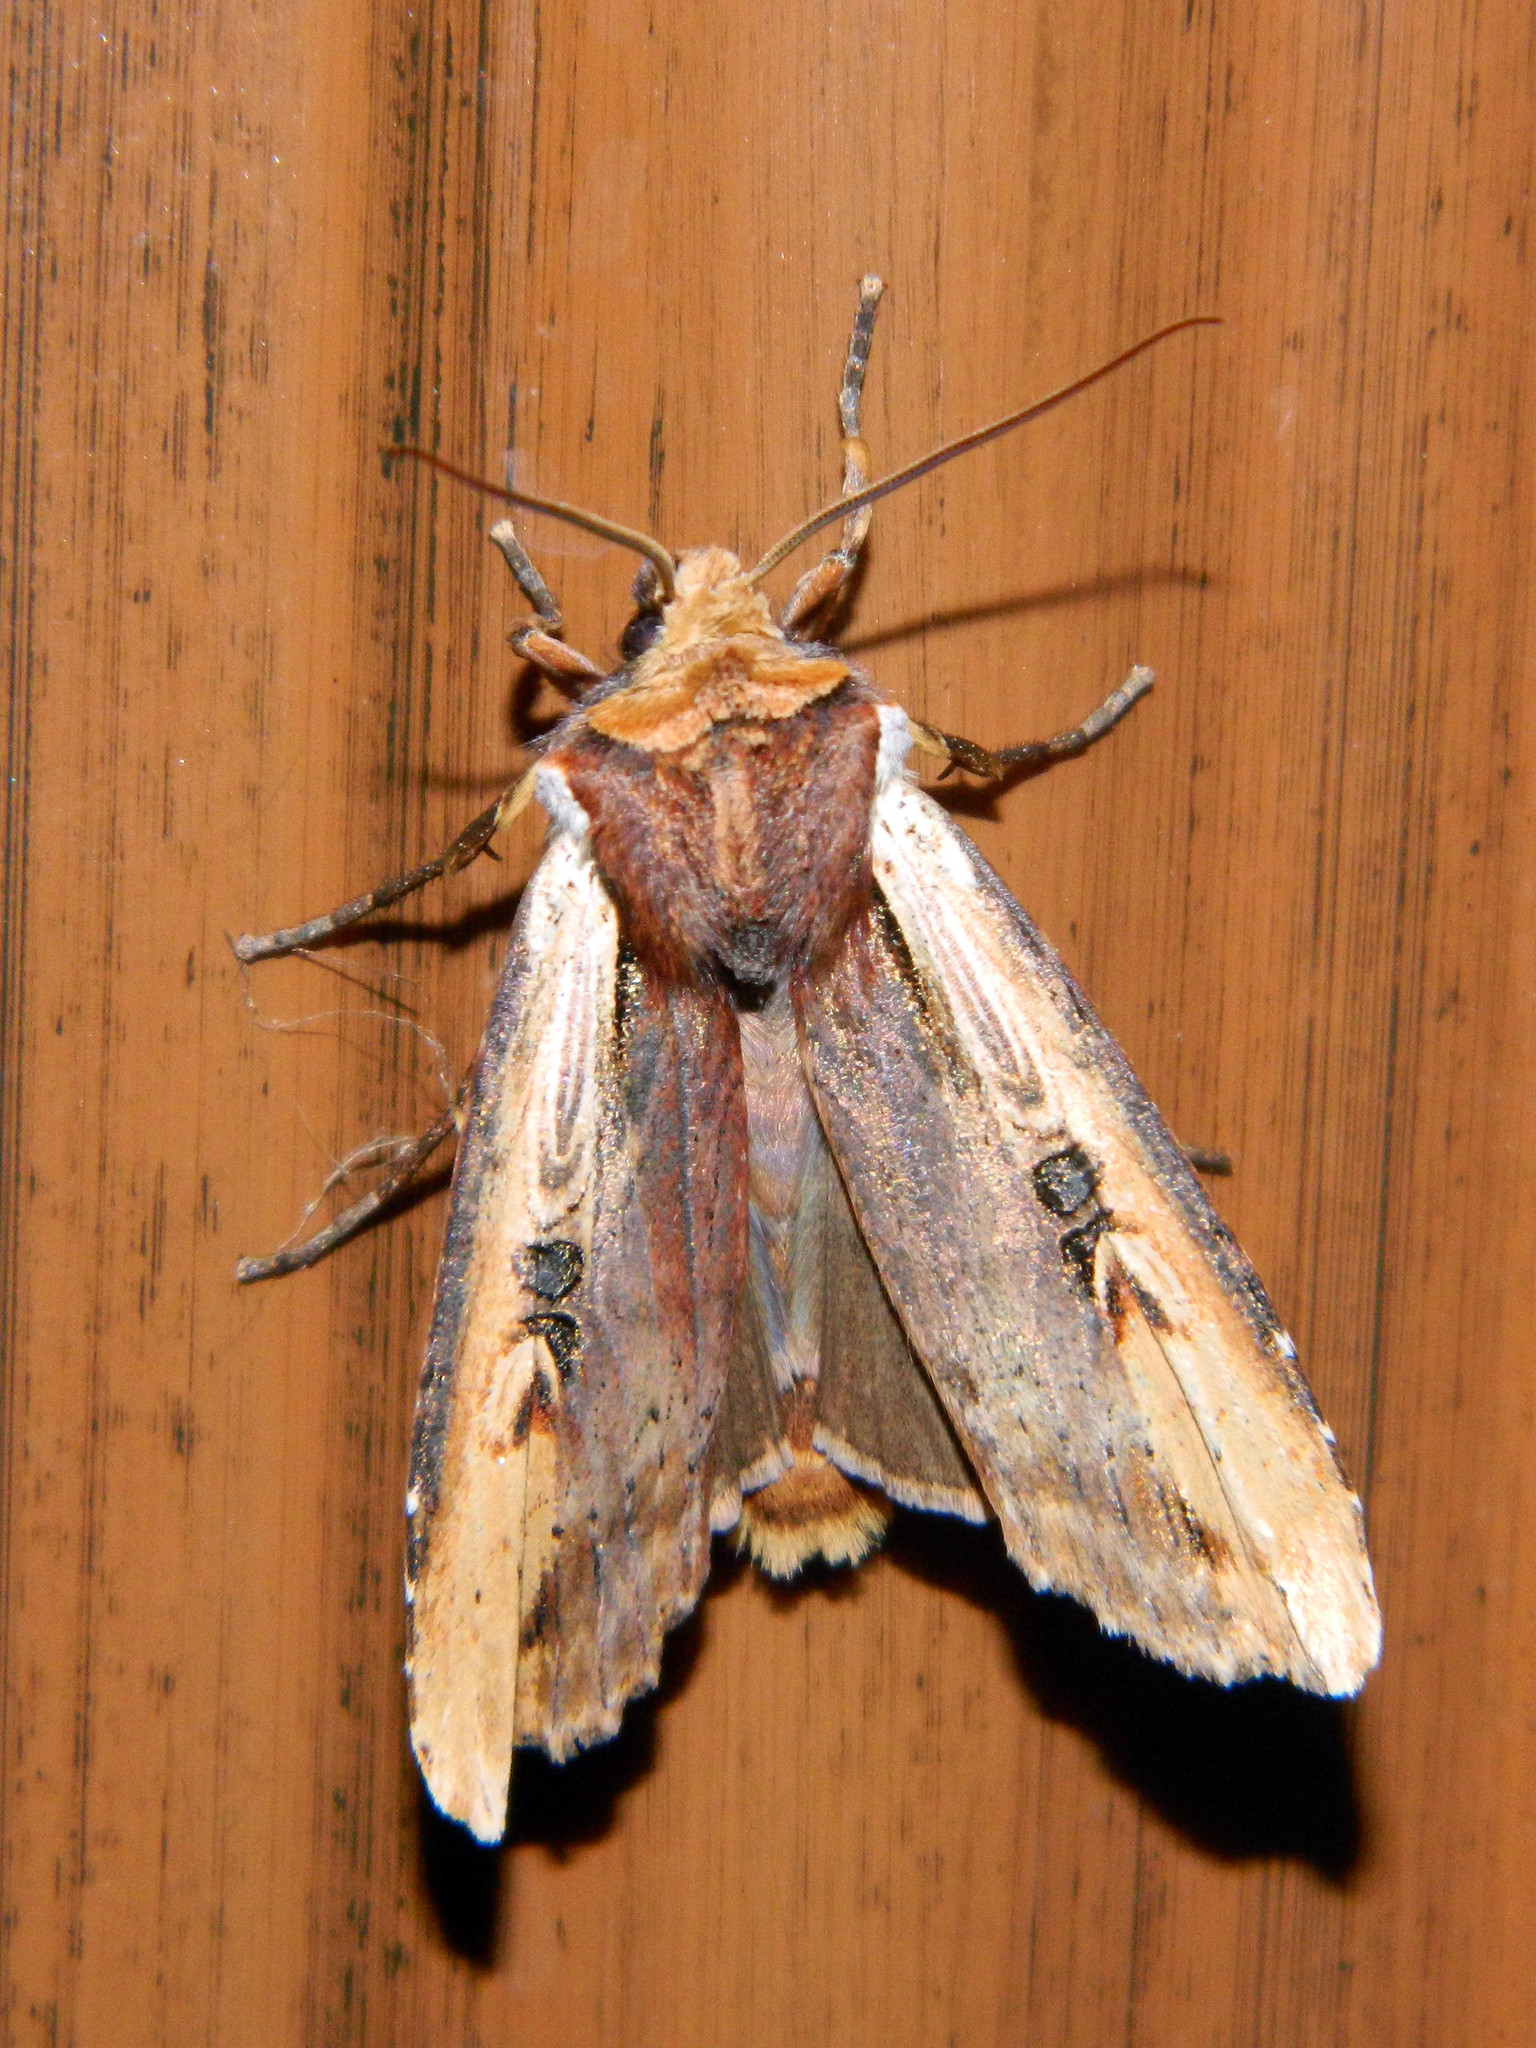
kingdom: Animalia
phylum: Arthropoda
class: Insecta
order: Lepidoptera
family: Noctuidae
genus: Xylena
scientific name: Xylena curvimacula
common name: Dot-and-dash swordgrass moth
